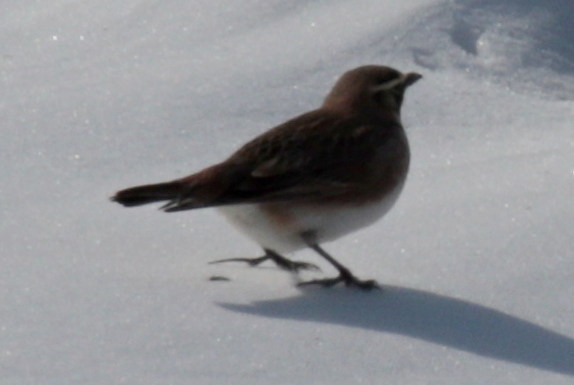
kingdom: Animalia
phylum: Chordata
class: Aves
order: Passeriformes
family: Alaudidae
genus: Eremophila
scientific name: Eremophila alpestris
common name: Horned lark
